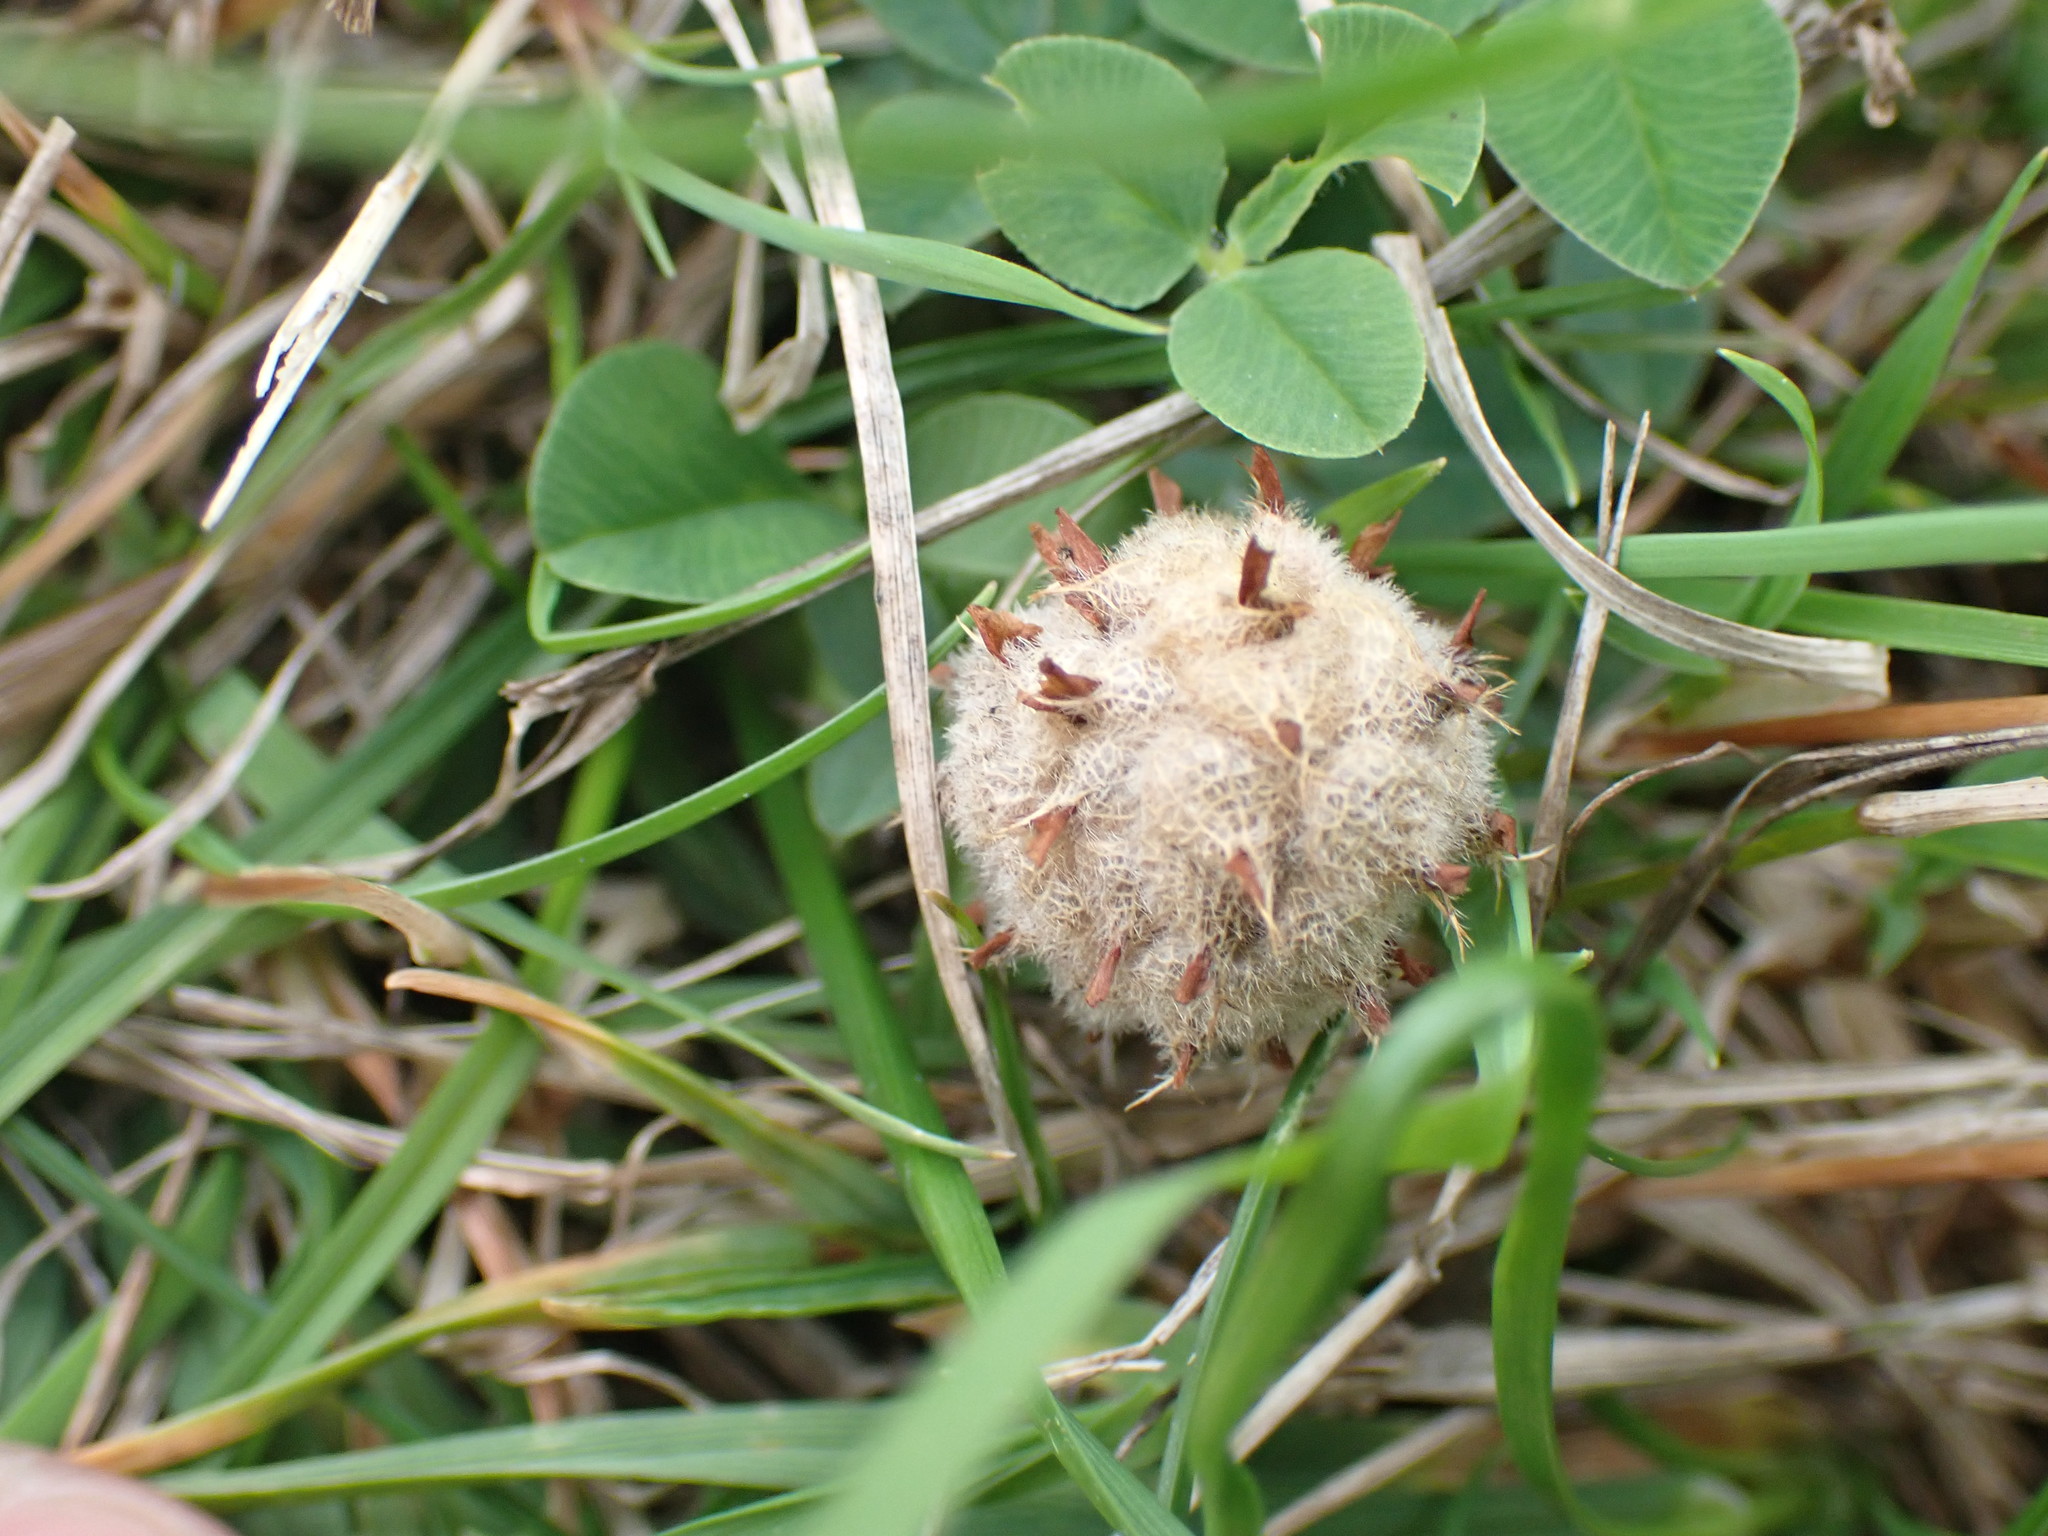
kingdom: Plantae
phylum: Tracheophyta
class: Magnoliopsida
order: Fabales
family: Fabaceae
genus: Trifolium
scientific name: Trifolium fragiferum
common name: Strawberry clover
